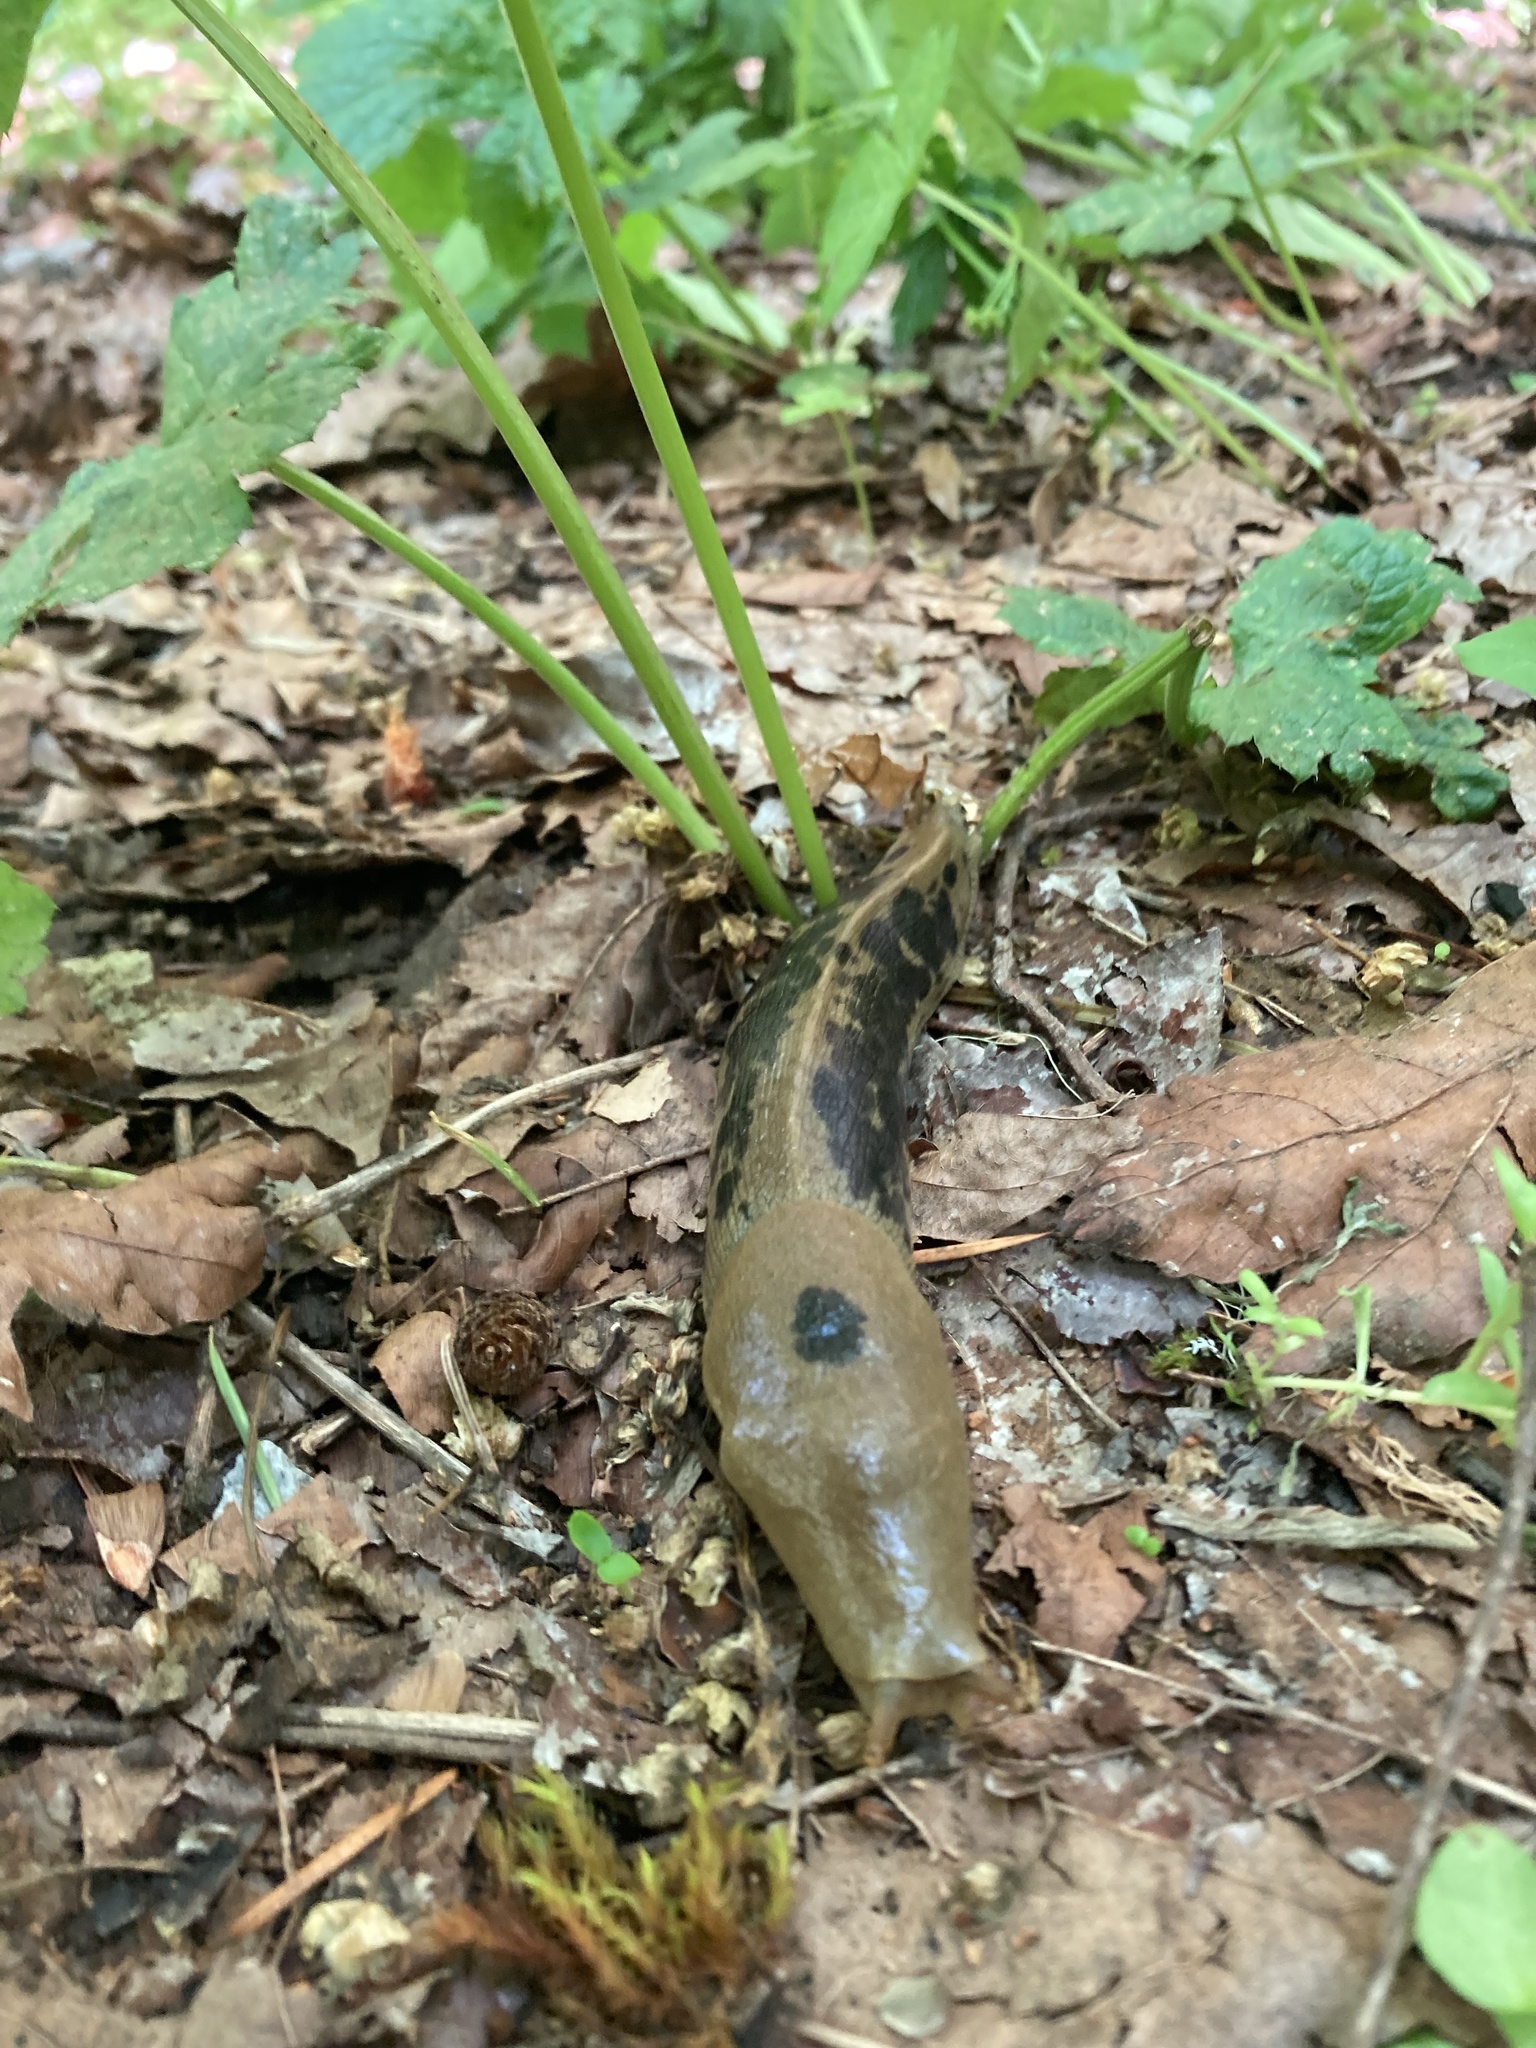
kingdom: Animalia
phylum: Mollusca
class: Gastropoda
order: Stylommatophora
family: Ariolimacidae
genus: Ariolimax
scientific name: Ariolimax columbianus
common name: Pacific banana slug
